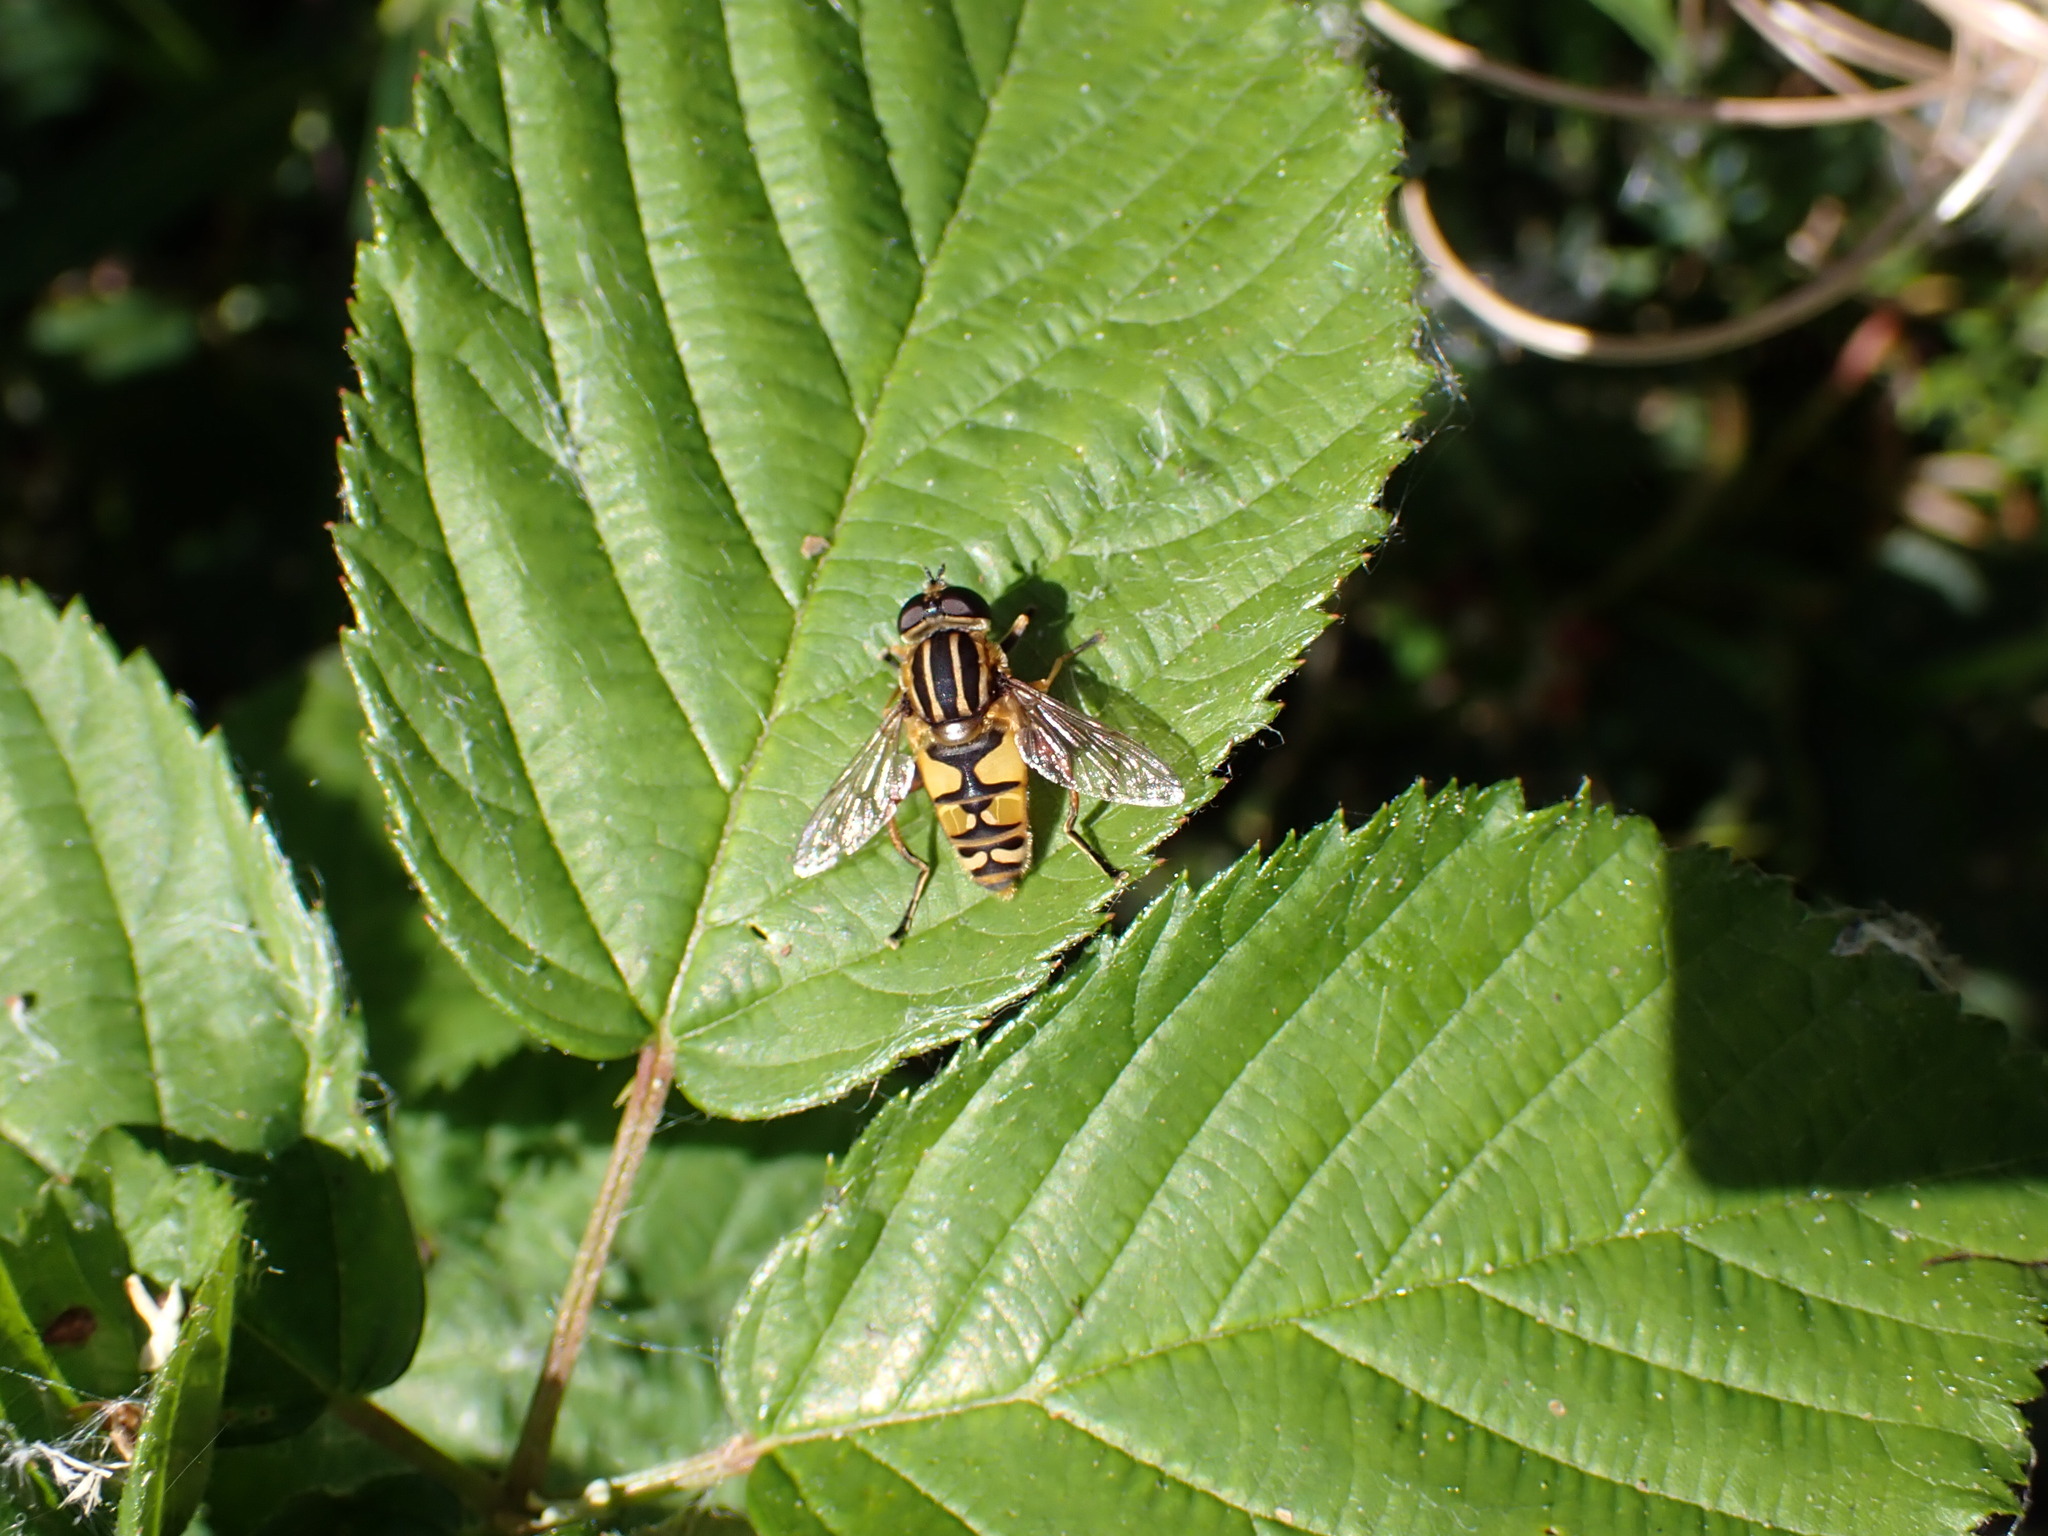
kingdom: Animalia
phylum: Arthropoda
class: Insecta
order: Diptera
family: Syrphidae
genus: Helophilus
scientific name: Helophilus pendulus
